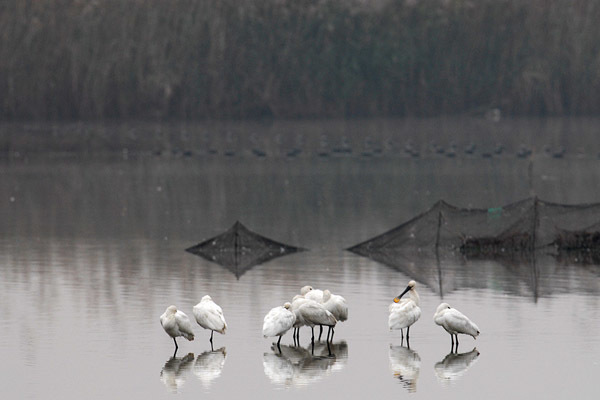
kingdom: Animalia
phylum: Chordata
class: Aves
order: Pelecaniformes
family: Threskiornithidae
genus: Platalea
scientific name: Platalea leucorodia
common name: Eurasian spoonbill
